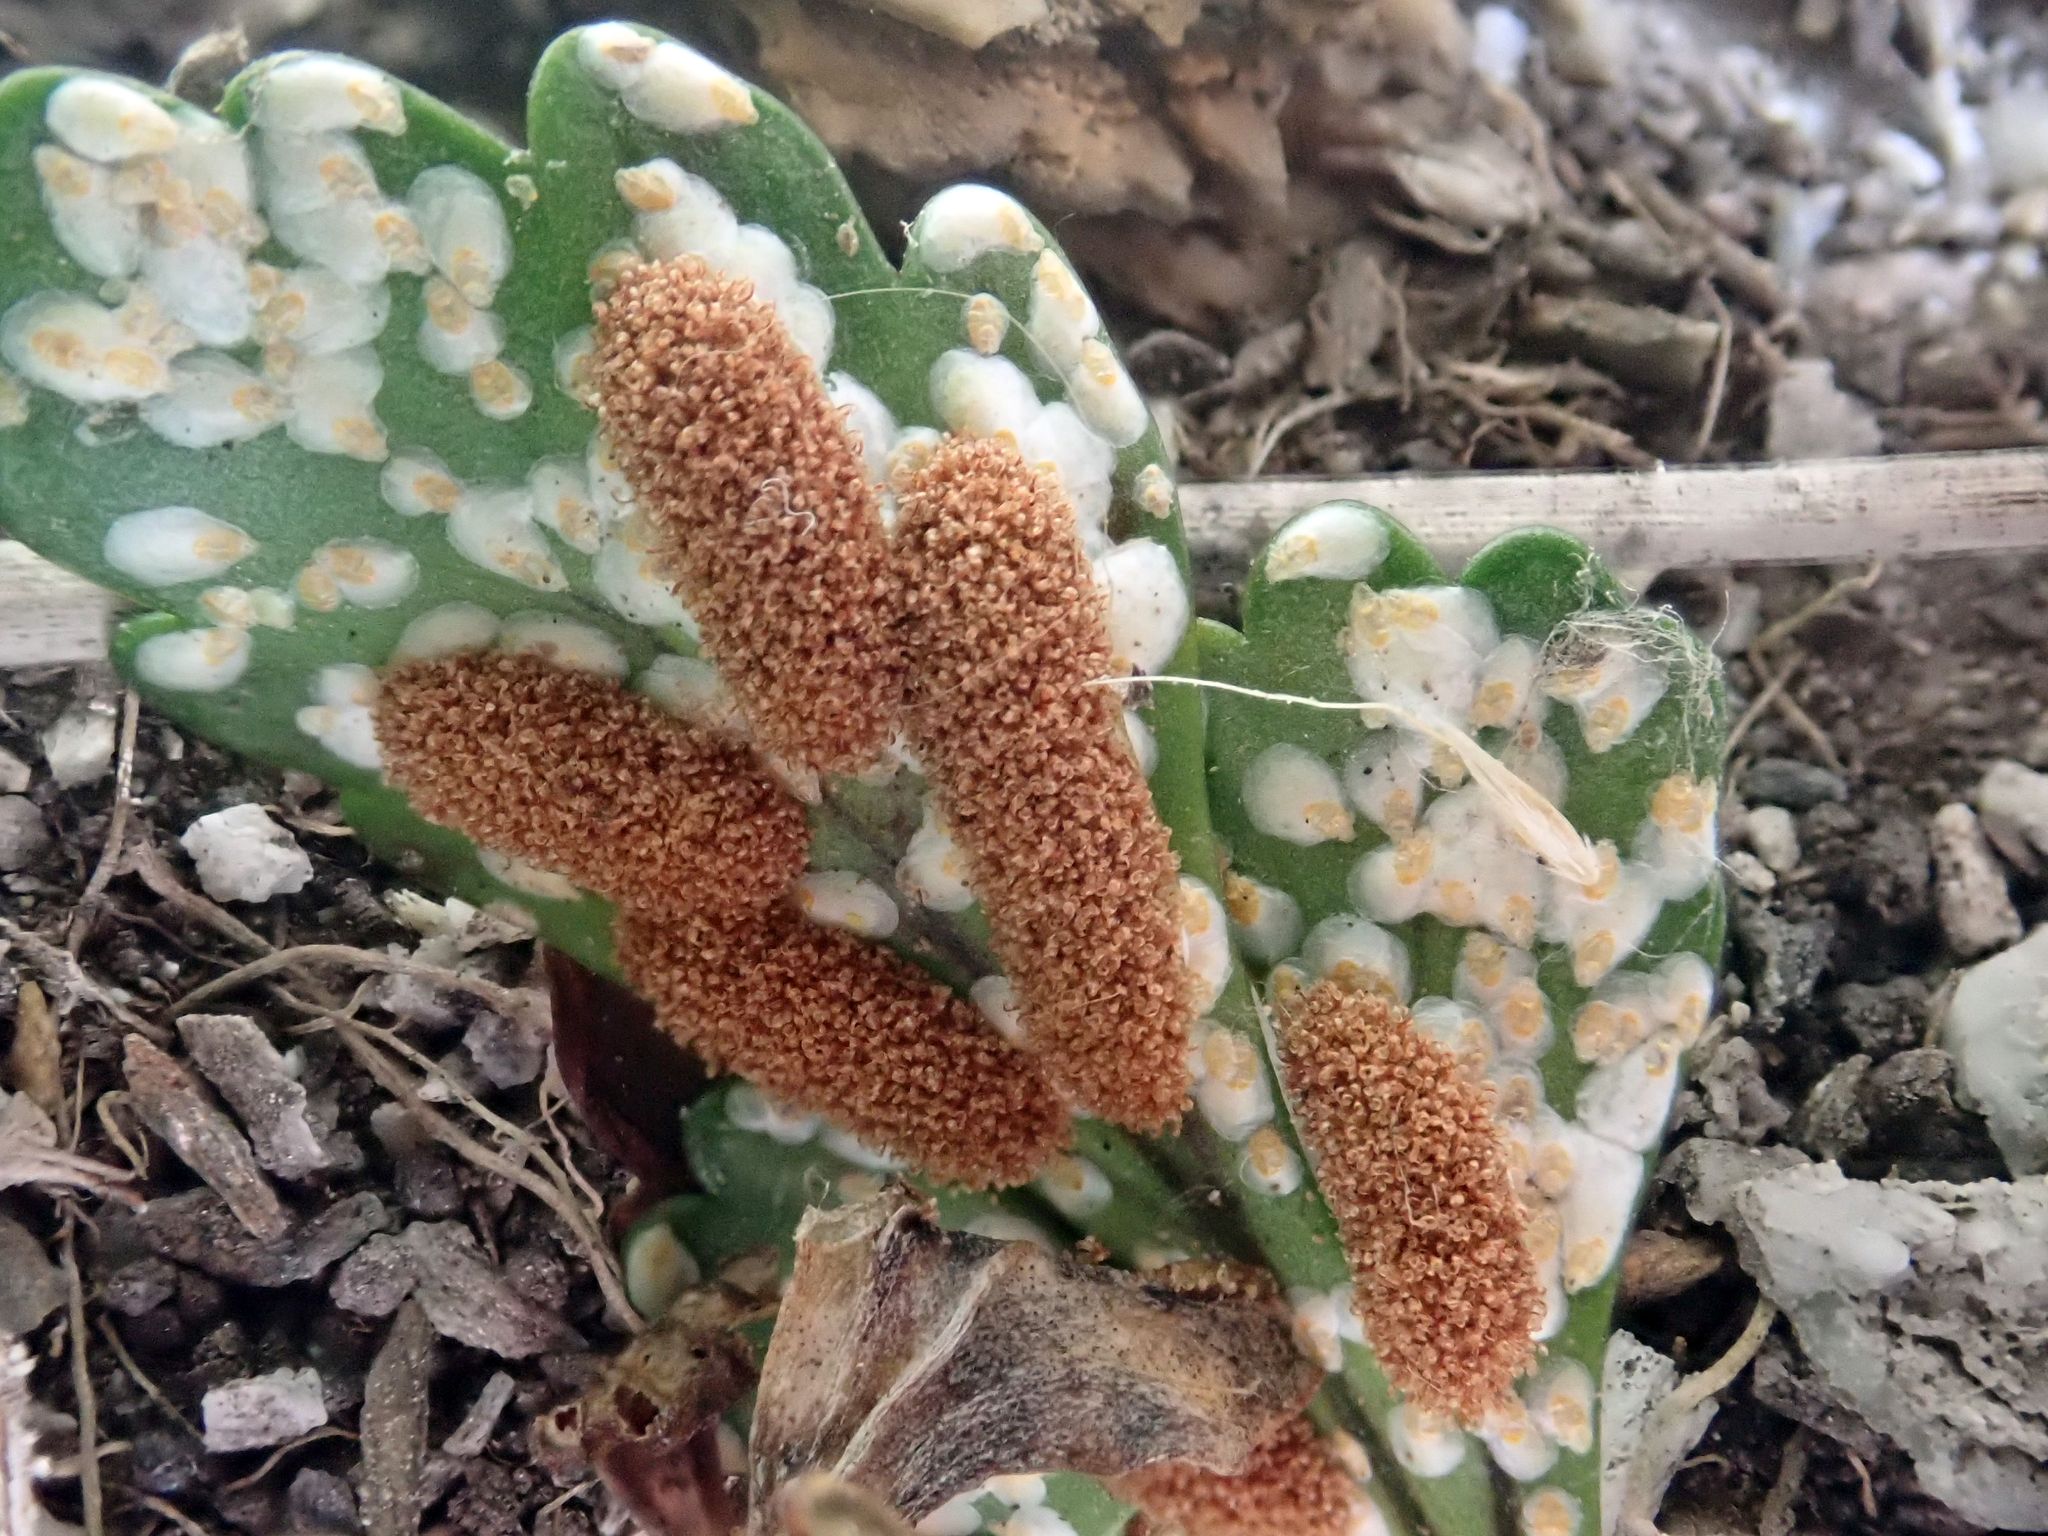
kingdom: Animalia
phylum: Arthropoda
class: Insecta
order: Hemiptera
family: Diaspididae
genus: Pseudaulacaspis
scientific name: Pseudaulacaspis phymatodidis
